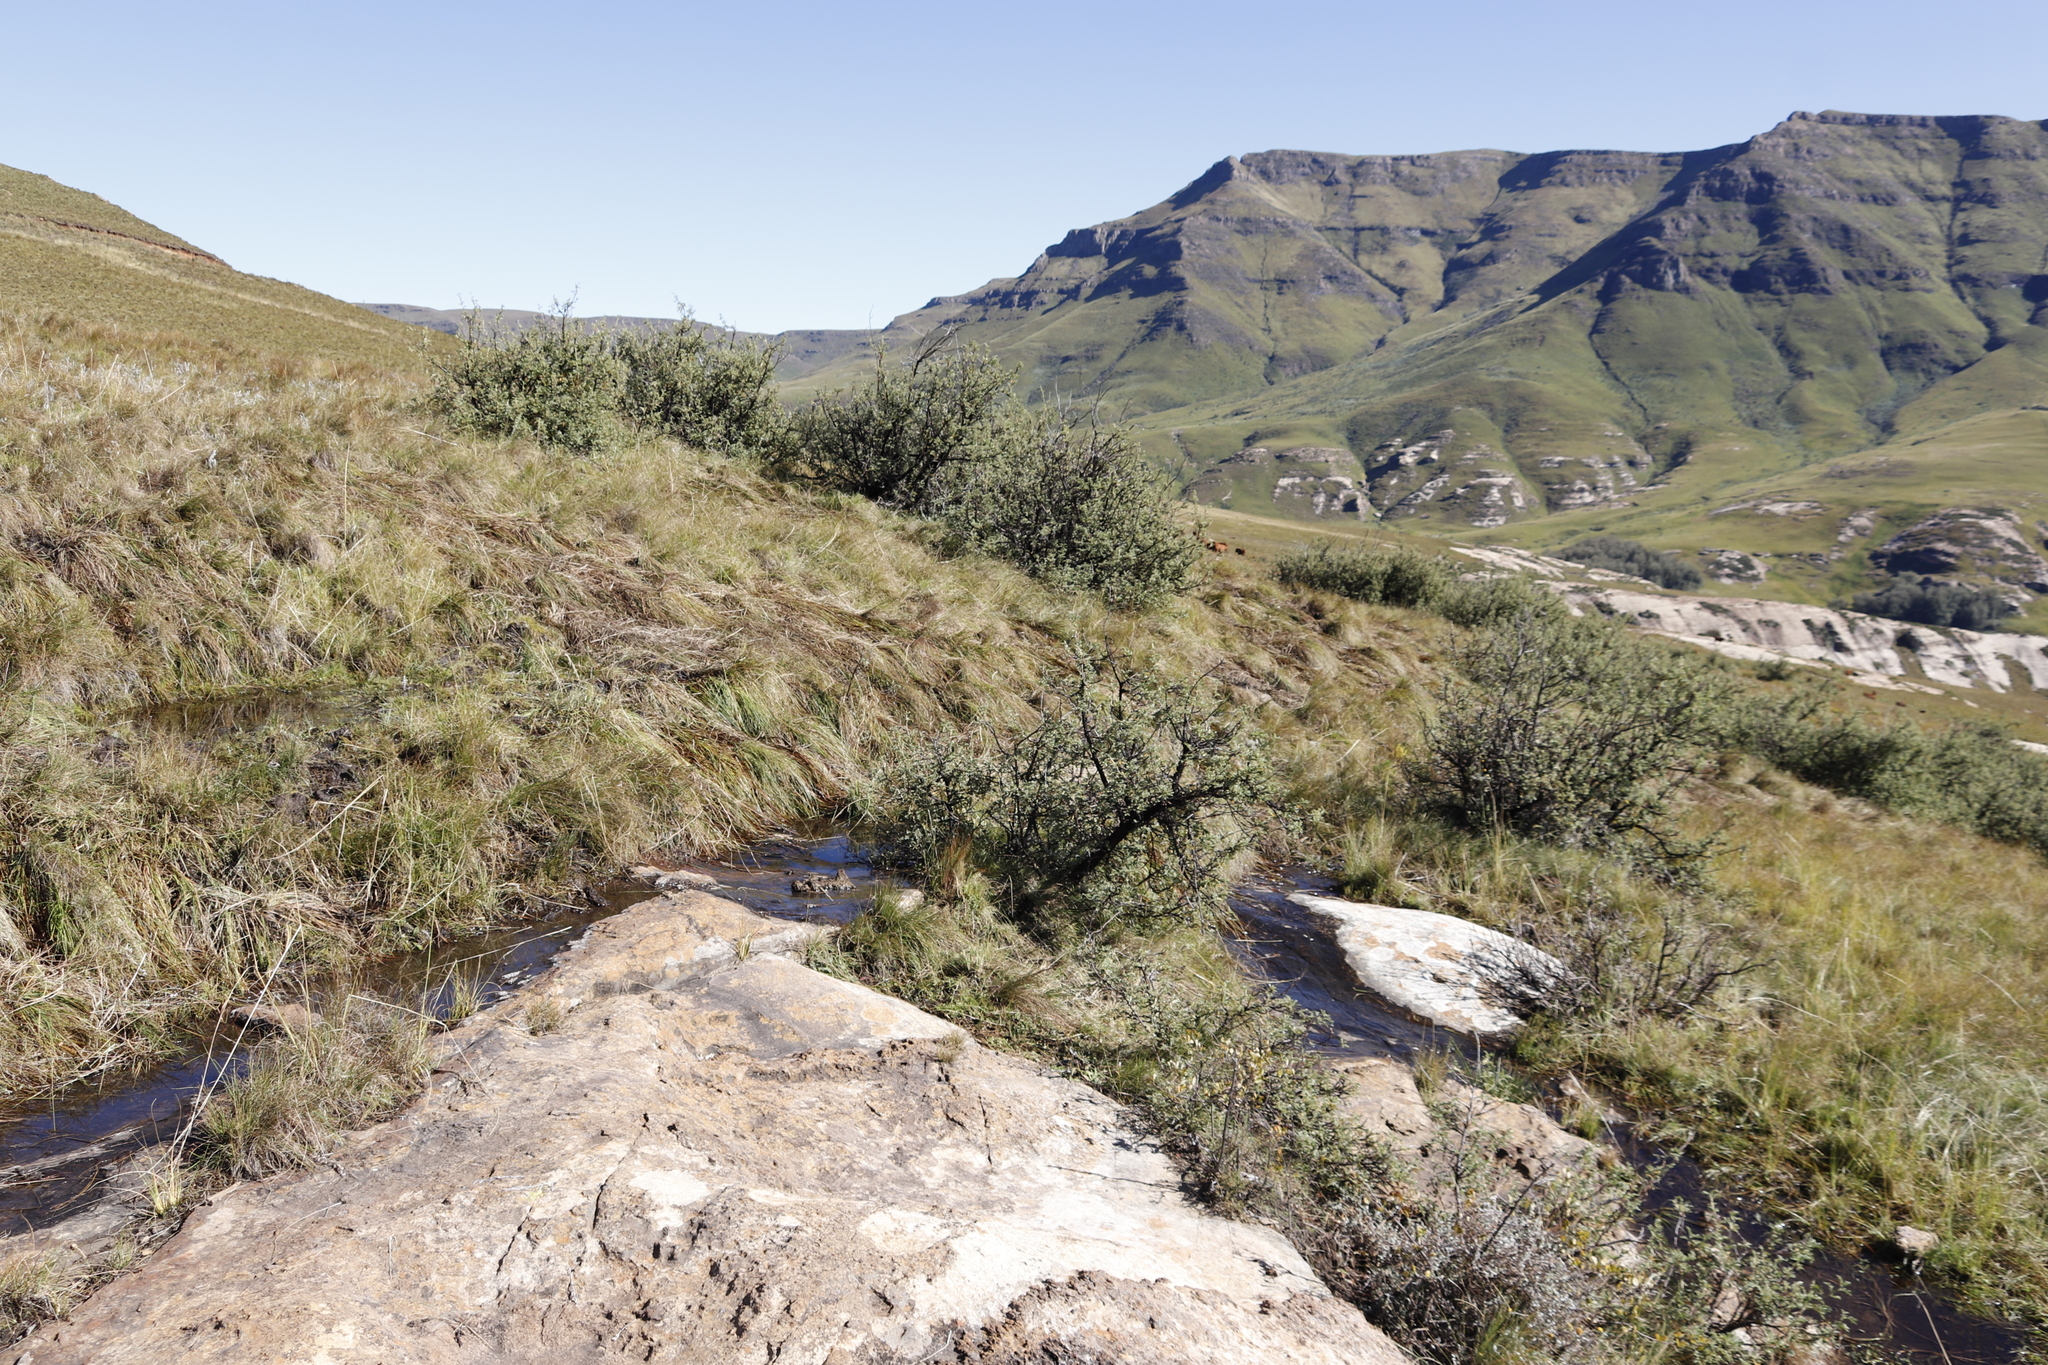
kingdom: Plantae
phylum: Tracheophyta
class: Magnoliopsida
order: Rosales
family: Rosaceae
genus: Leucosidea
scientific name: Leucosidea sericea
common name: Oldwood
